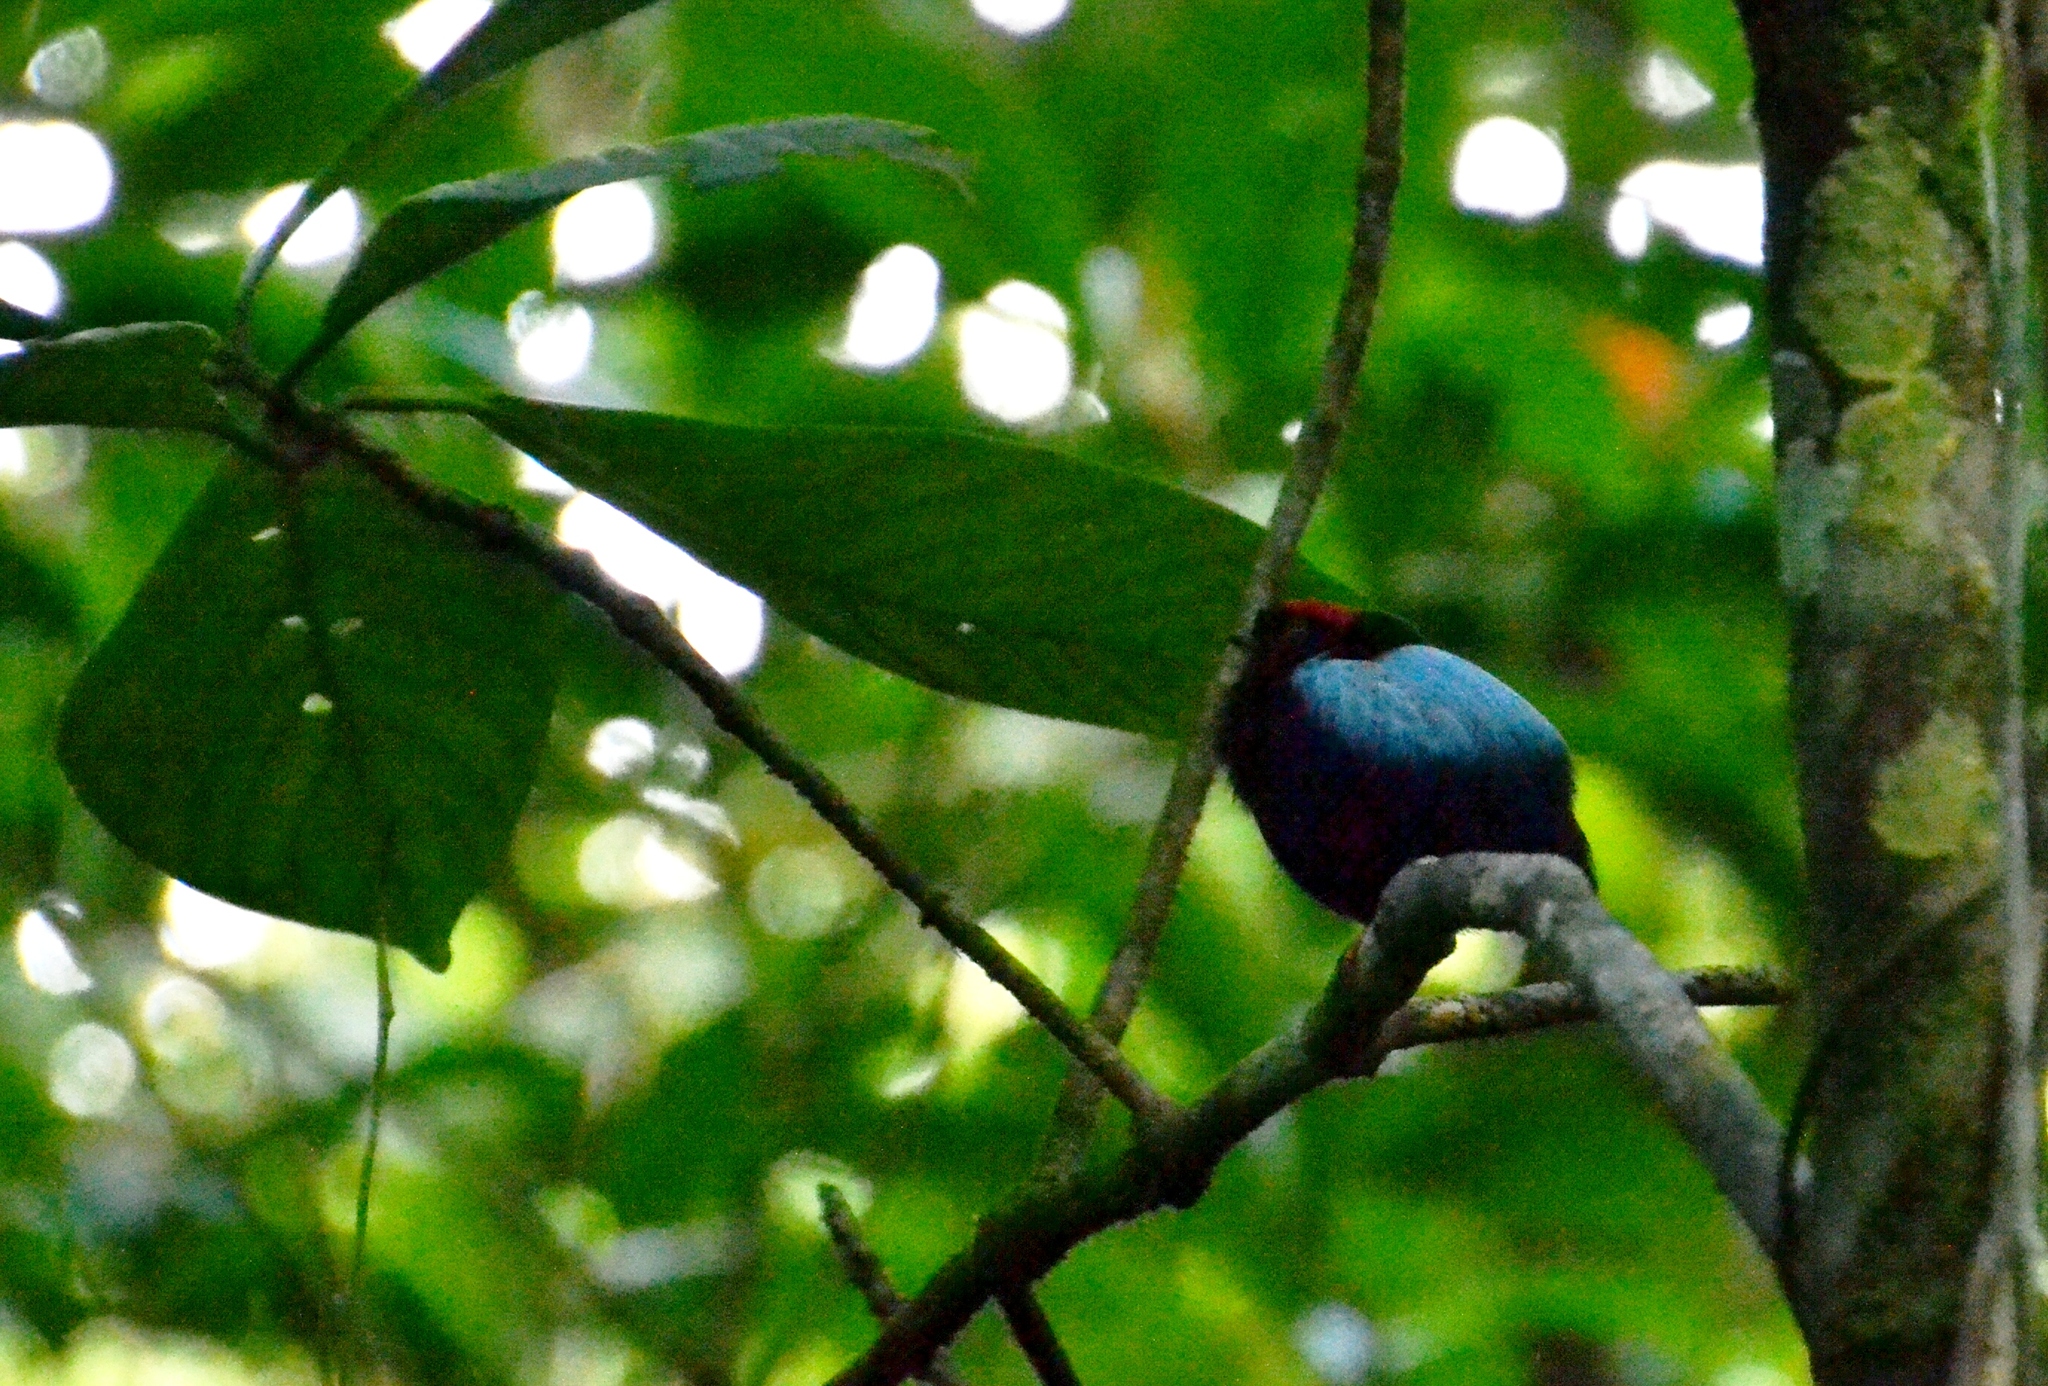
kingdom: Animalia
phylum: Chordata
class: Aves
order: Passeriformes
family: Pipridae
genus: Chiroxiphia
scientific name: Chiroxiphia pareola
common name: Blue-backed manakin
